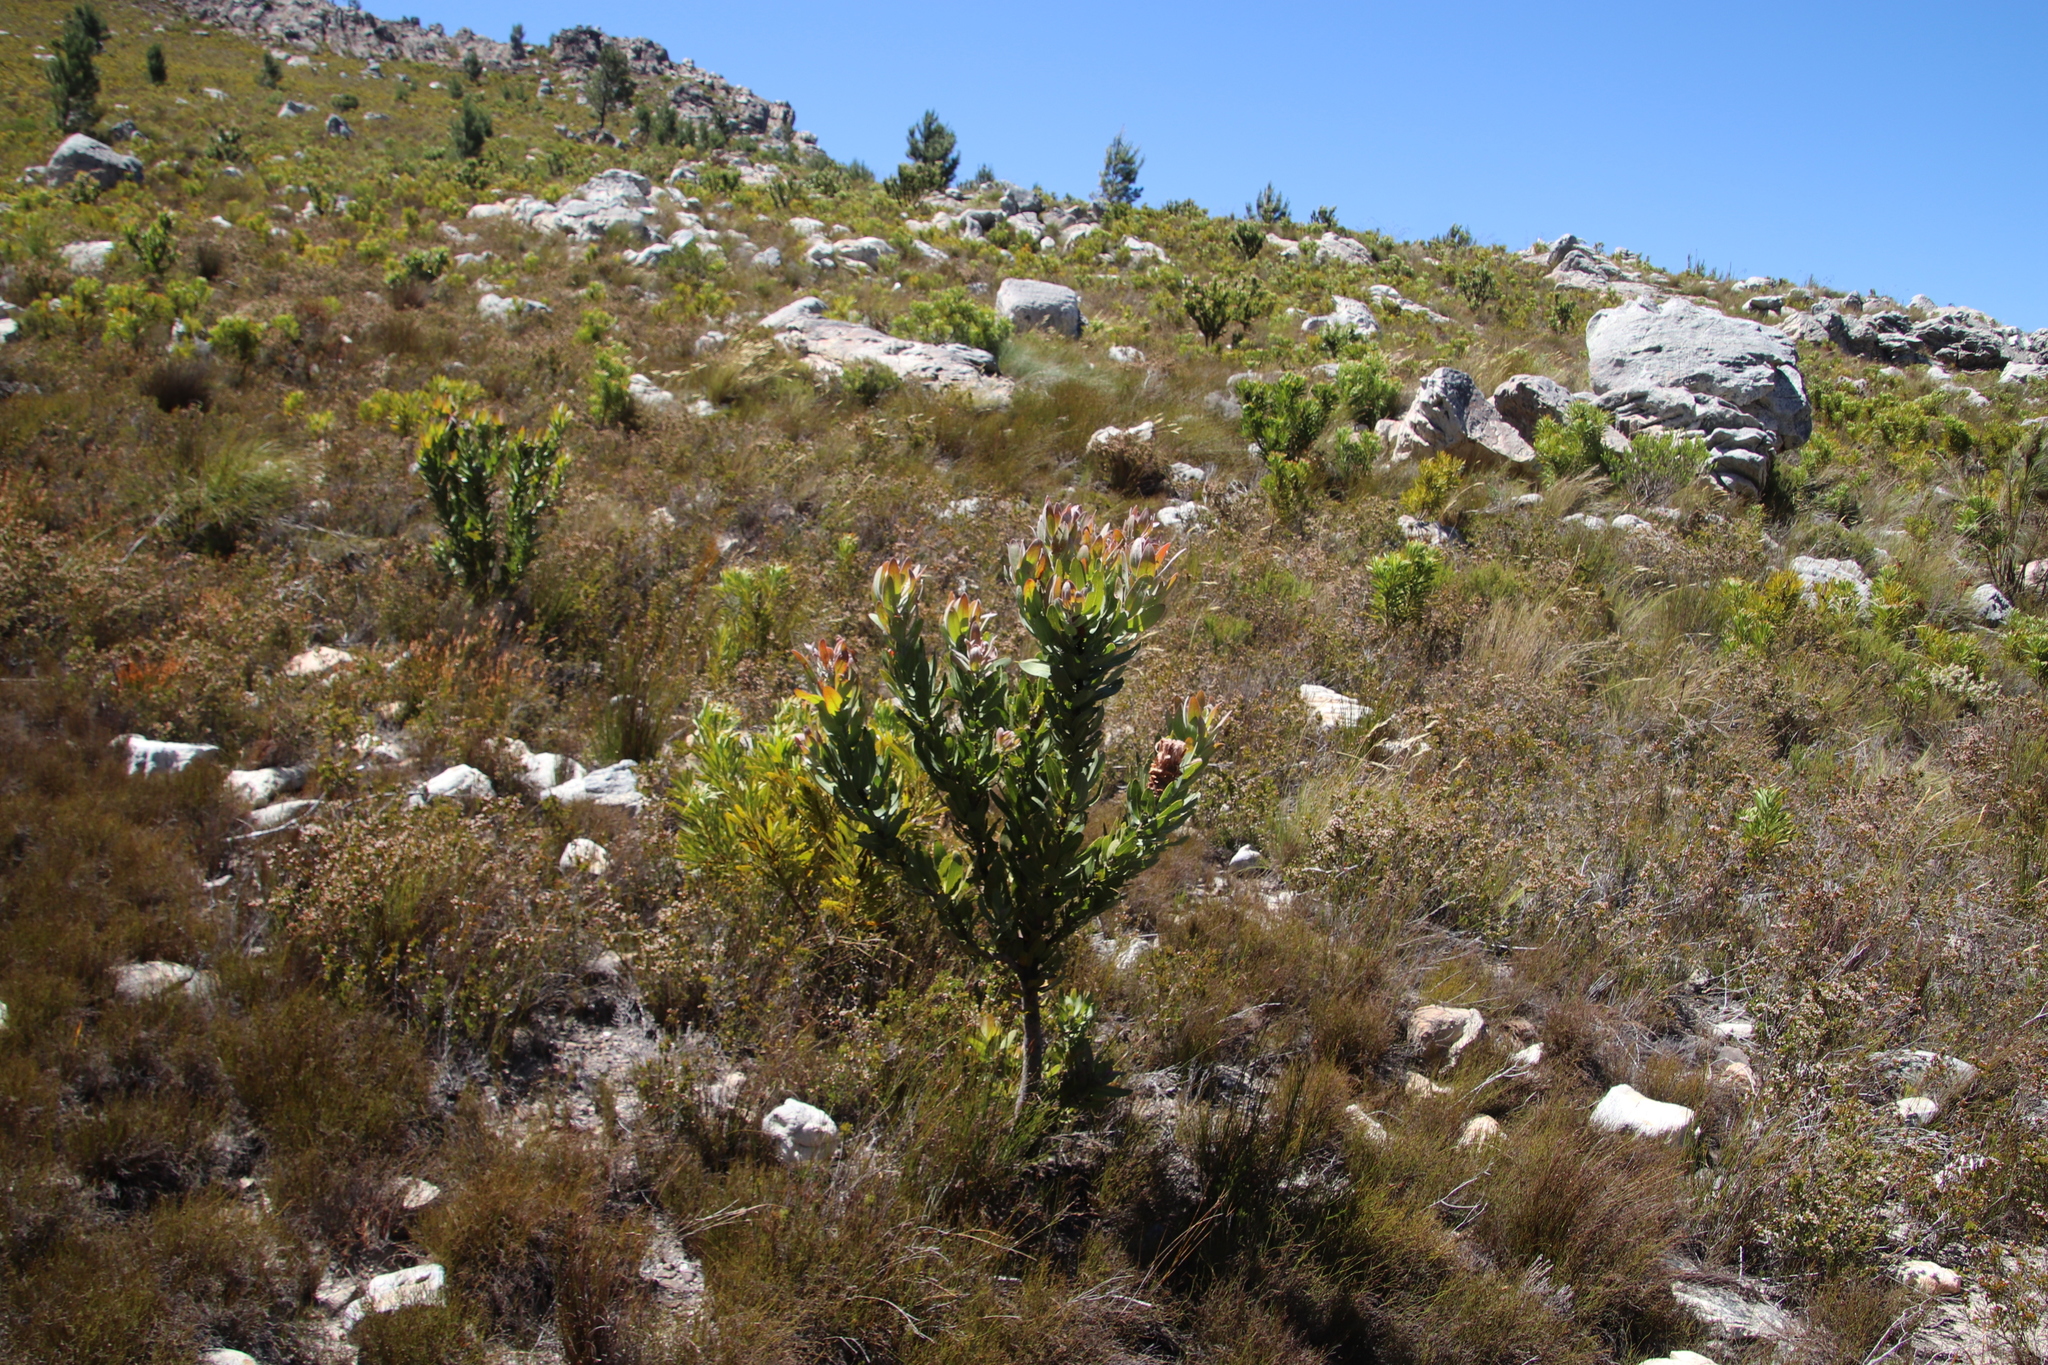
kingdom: Plantae
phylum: Tracheophyta
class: Magnoliopsida
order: Proteales
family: Proteaceae
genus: Protea
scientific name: Protea laurifolia
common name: Grey-leaf sugarbsh
